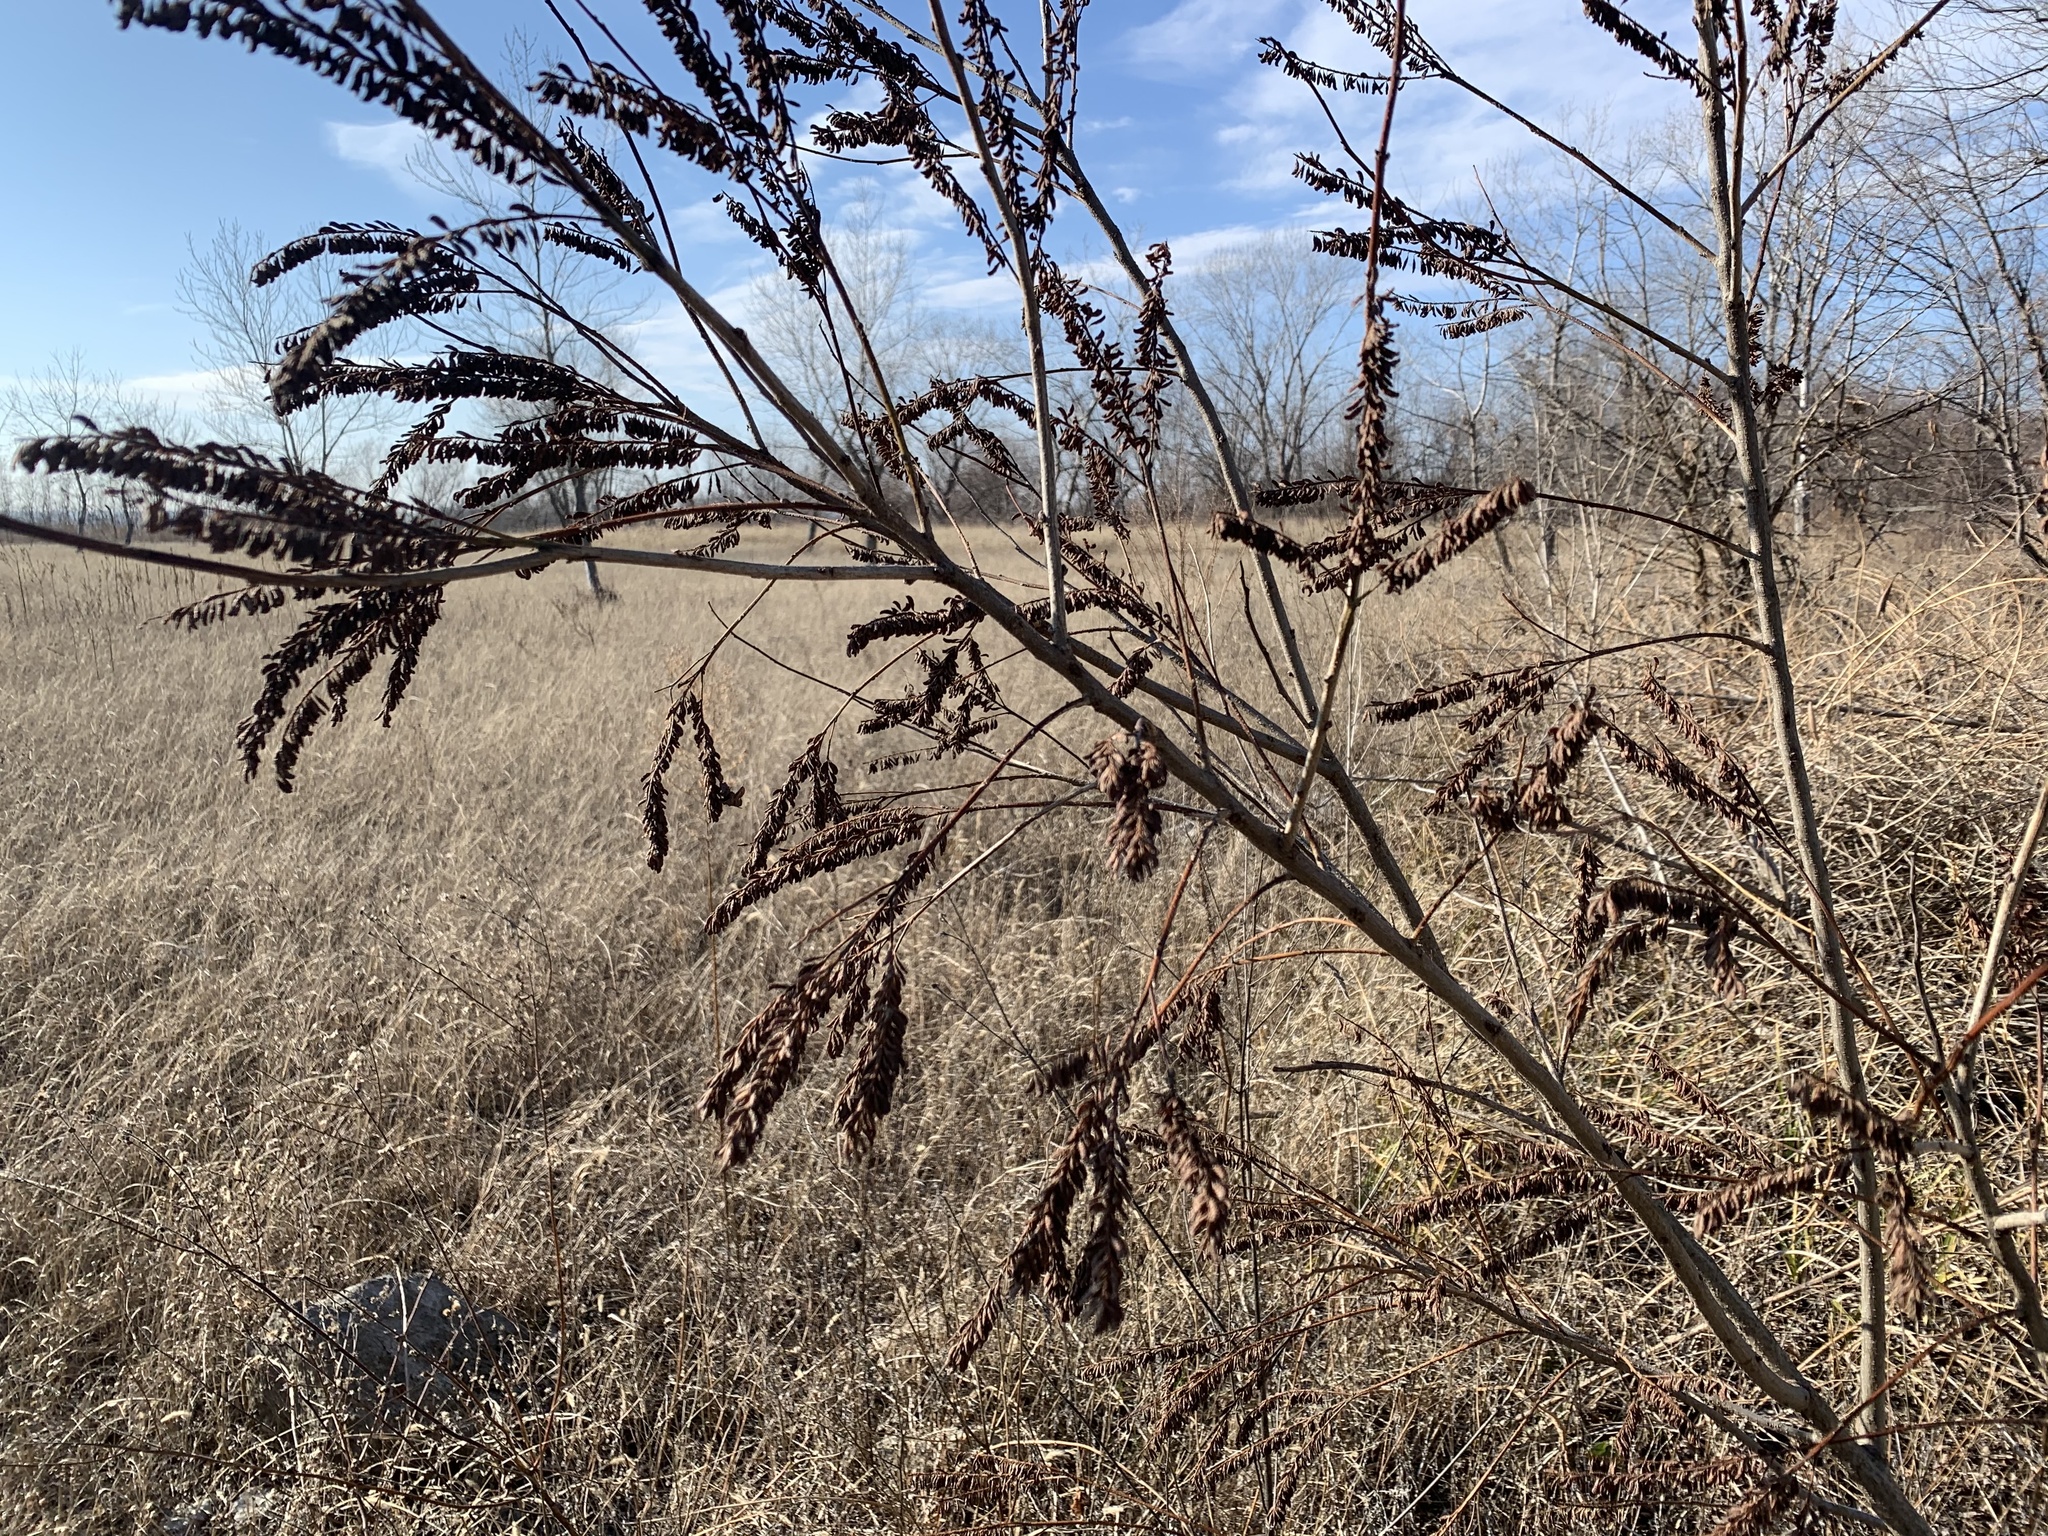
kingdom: Plantae
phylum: Tracheophyta
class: Magnoliopsida
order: Fabales
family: Fabaceae
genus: Amorpha
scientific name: Amorpha fruticosa
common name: False indigo
